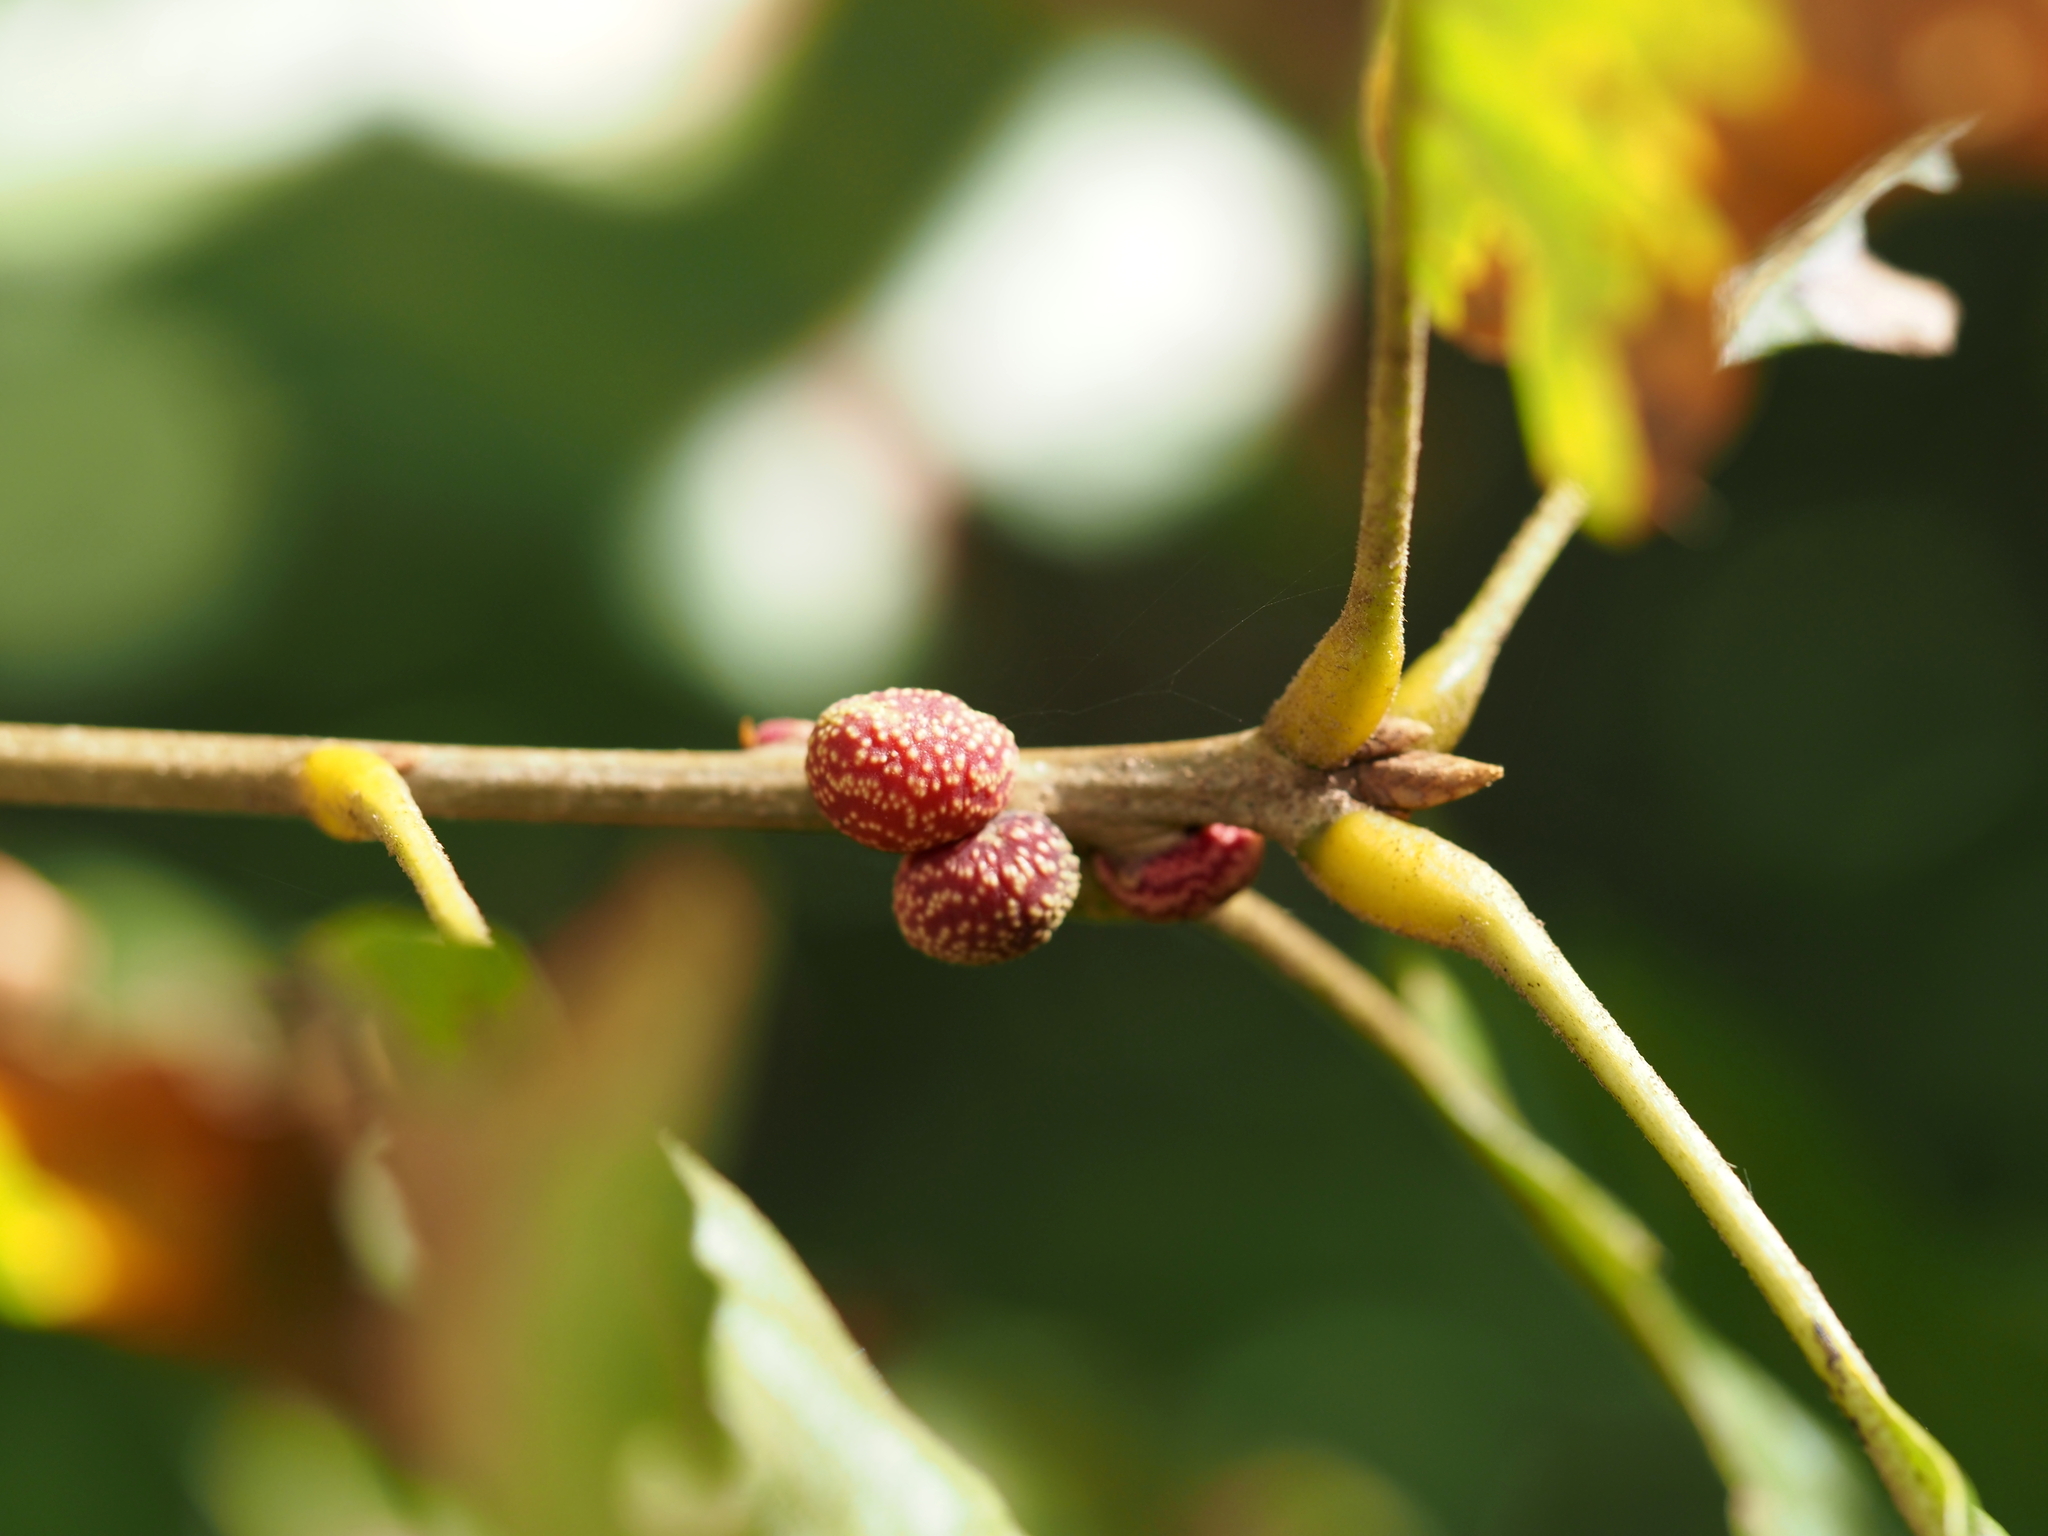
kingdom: Animalia
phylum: Arthropoda
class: Insecta
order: Hymenoptera
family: Cynipidae
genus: Kokkocynips
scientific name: Kokkocynips imbricariae
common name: Banded bullet gall wasp
